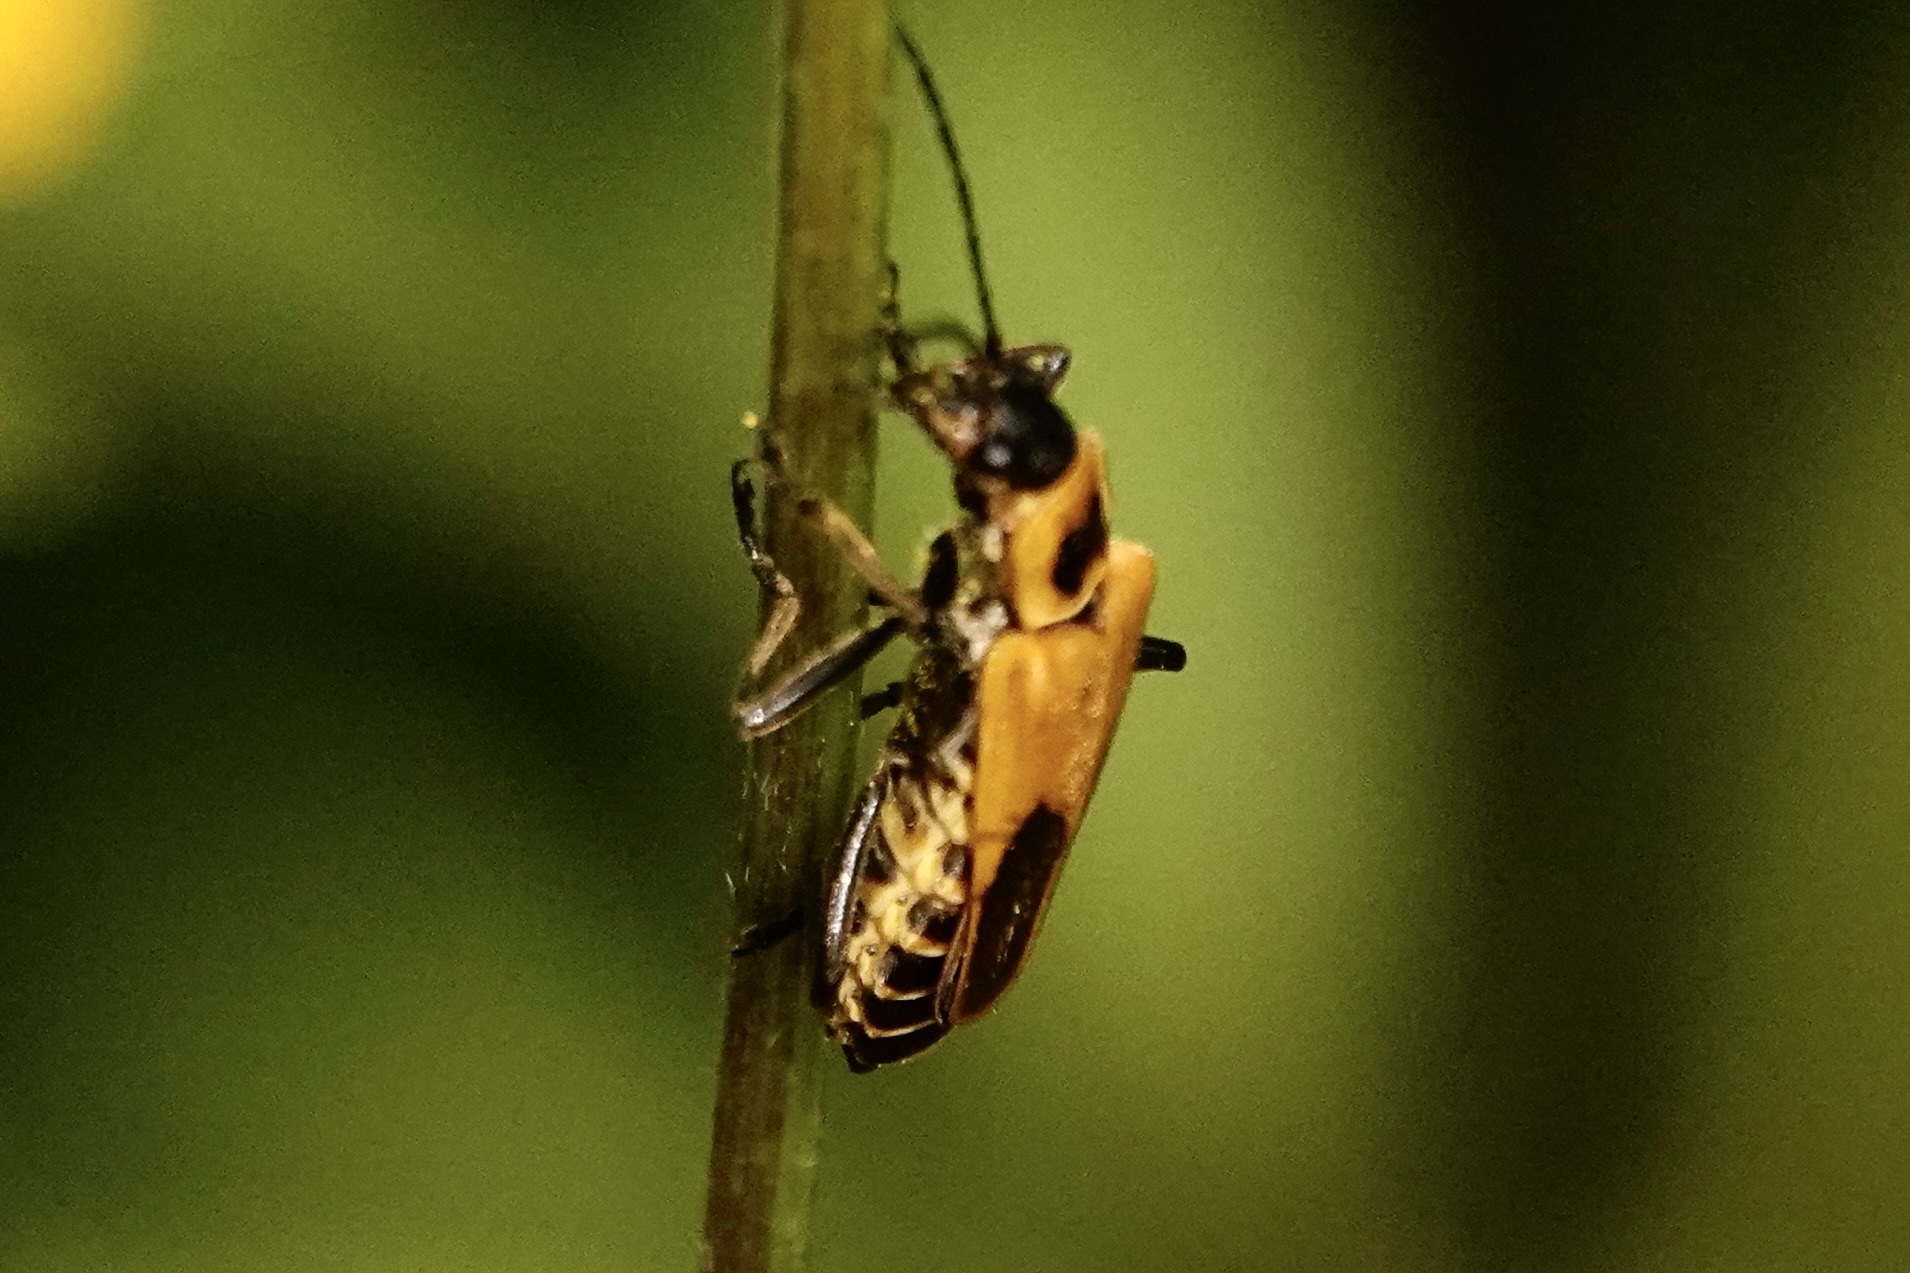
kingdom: Animalia
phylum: Arthropoda
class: Insecta
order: Coleoptera
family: Cantharidae
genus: Chauliognathus
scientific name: Chauliognathus pensylvanicus
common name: Goldenrod soldier beetle
